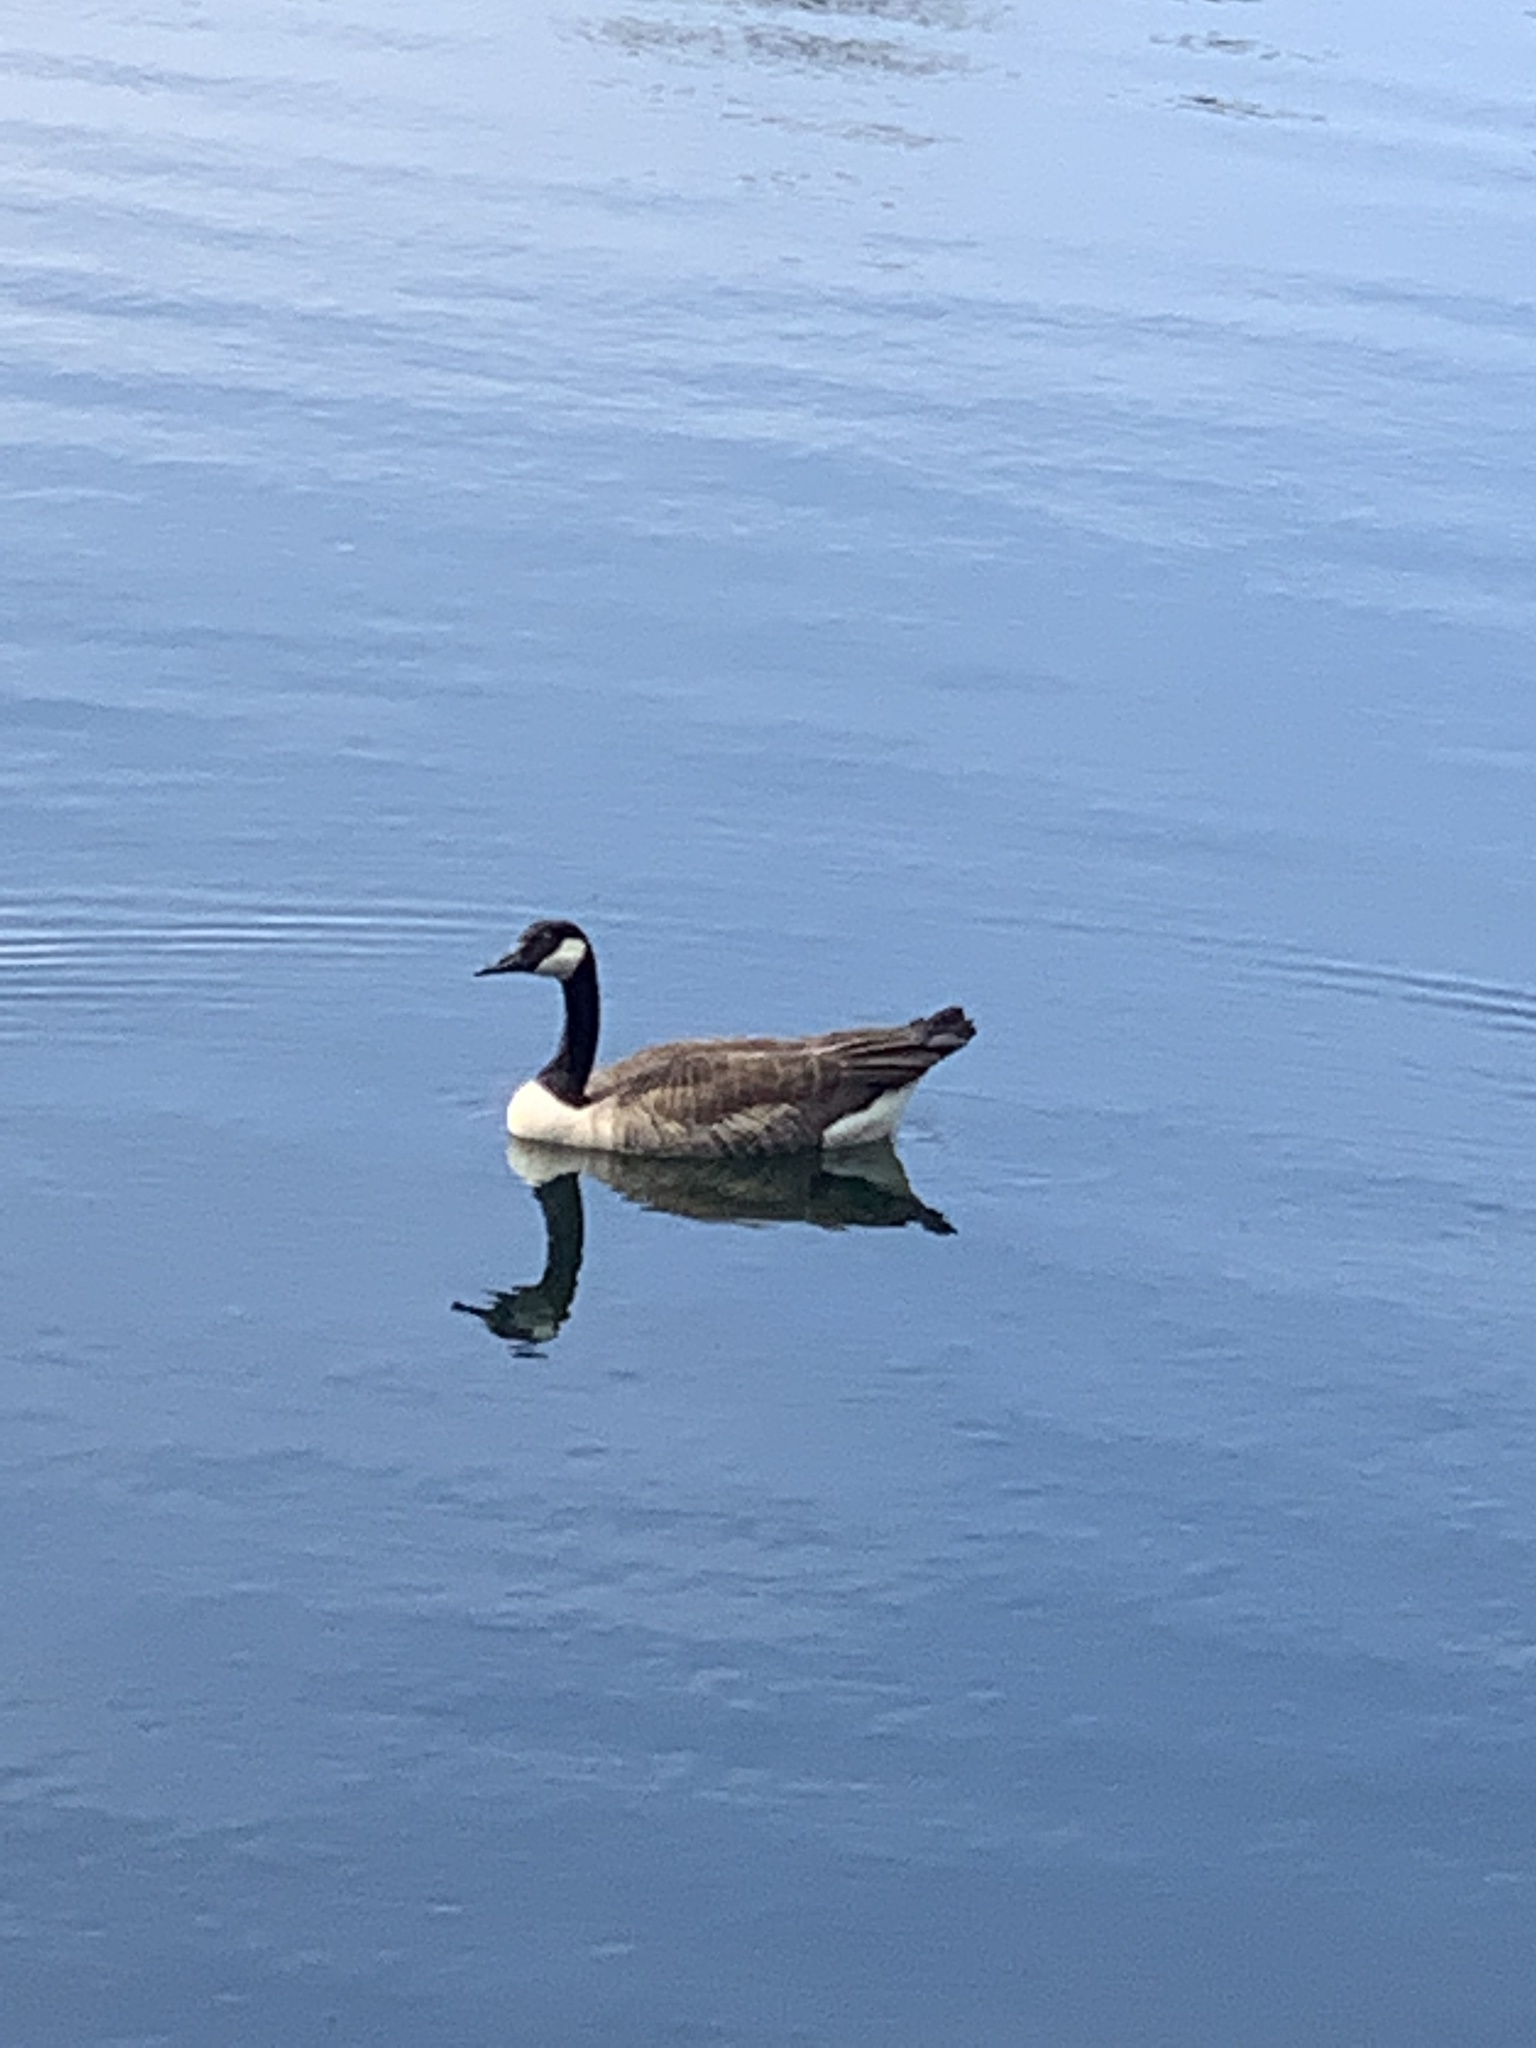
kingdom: Animalia
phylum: Chordata
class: Aves
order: Anseriformes
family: Anatidae
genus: Branta
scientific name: Branta canadensis
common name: Canada goose
